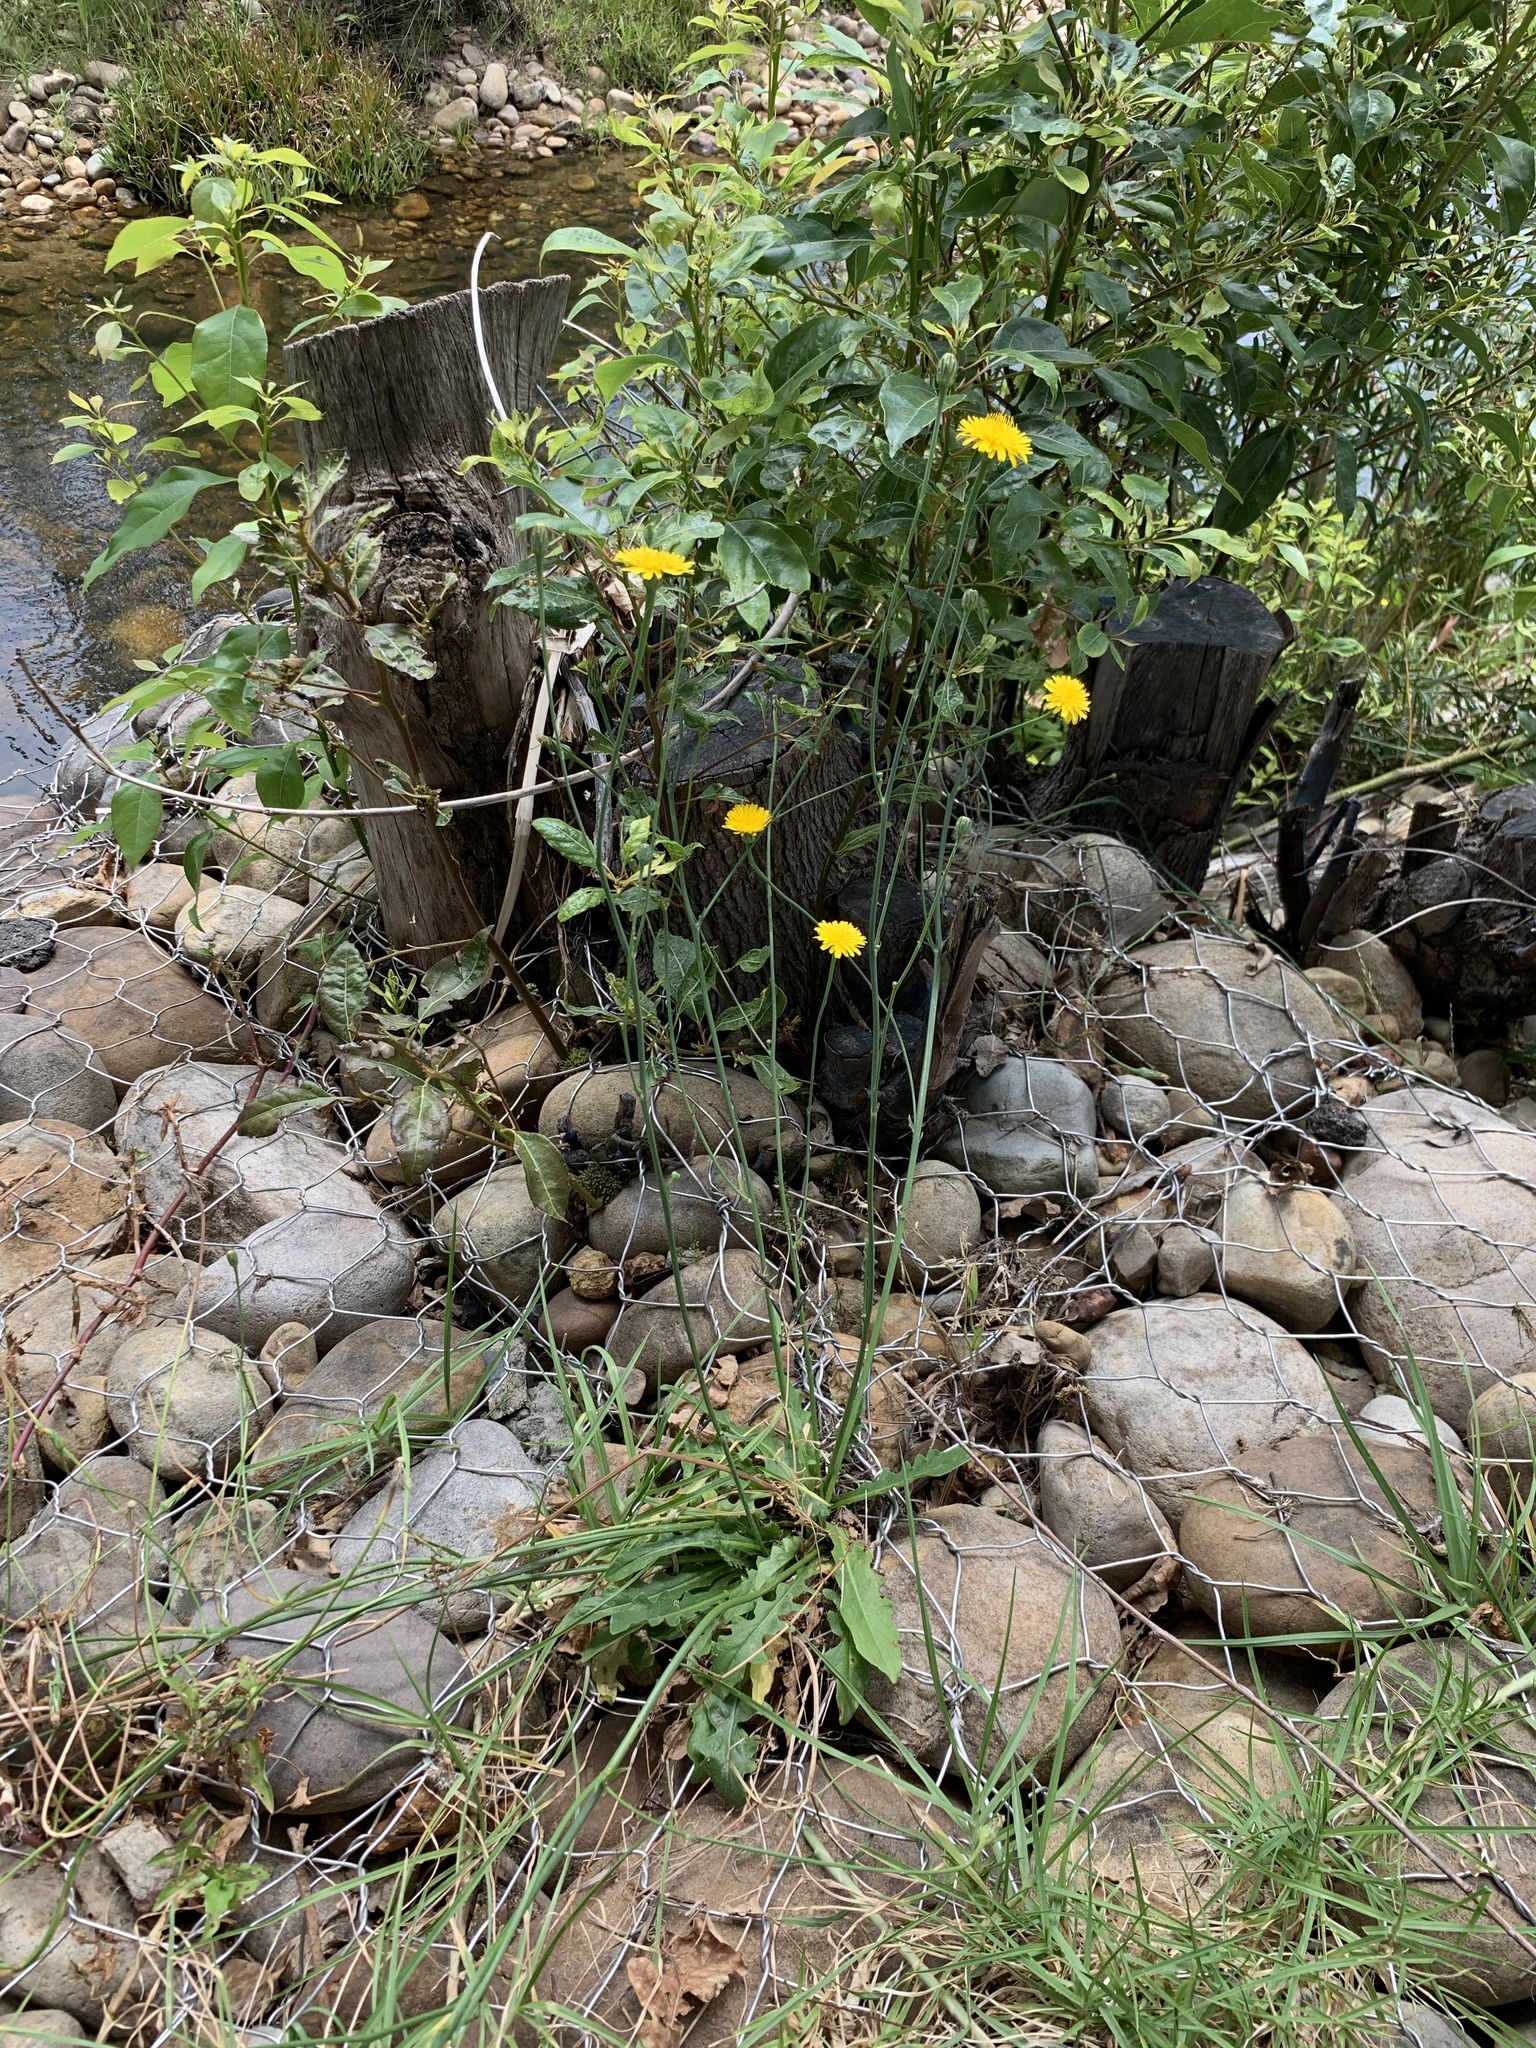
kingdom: Plantae
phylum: Tracheophyta
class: Magnoliopsida
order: Asterales
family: Asteraceae
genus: Hypochaeris
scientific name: Hypochaeris radicata
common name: Flatweed
